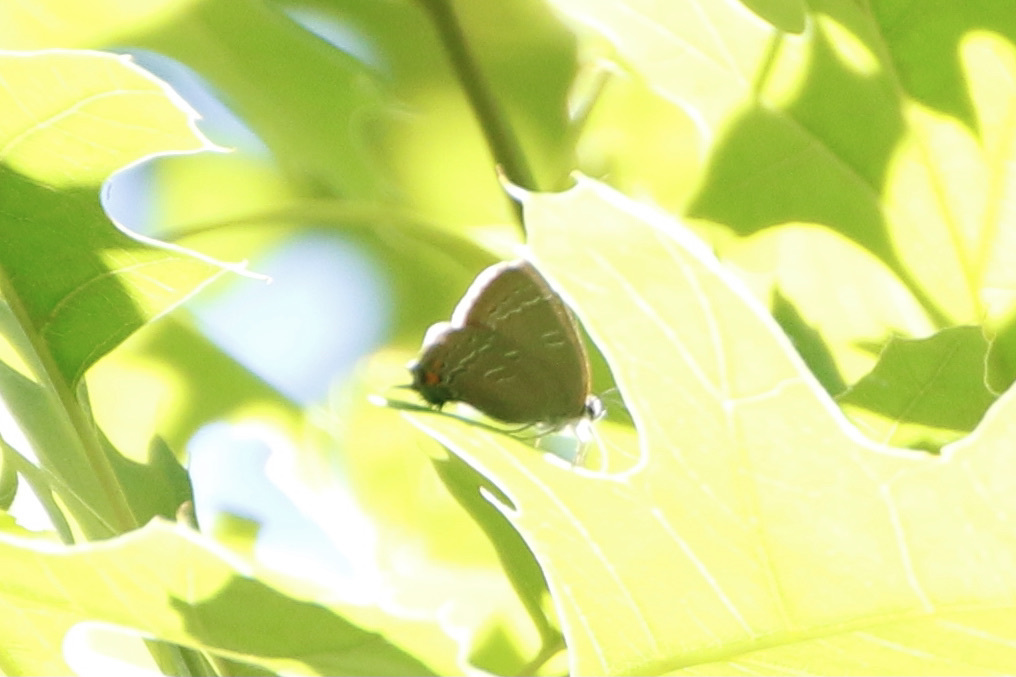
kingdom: Animalia
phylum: Arthropoda
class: Insecta
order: Lepidoptera
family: Lycaenidae
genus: Satyrium
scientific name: Satyrium calanus
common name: Banded hairstreak
